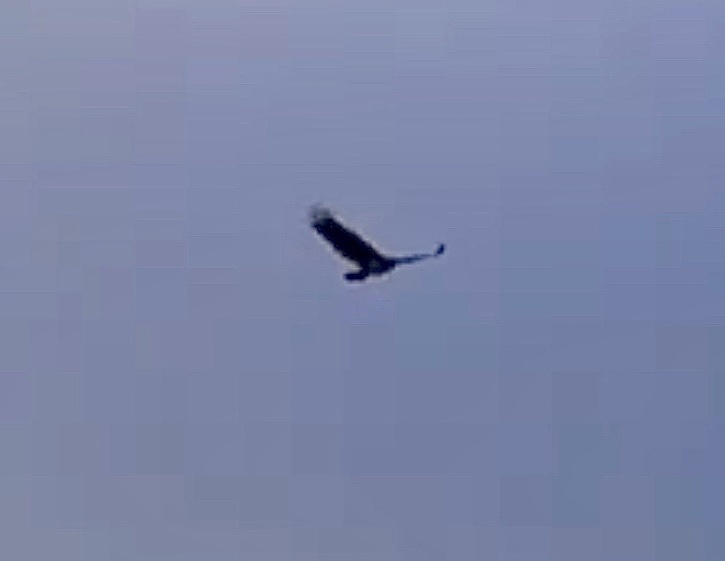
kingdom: Animalia
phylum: Chordata
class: Aves
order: Accipitriformes
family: Accipitridae
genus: Haliaeetus
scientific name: Haliaeetus albicilla
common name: White-tailed eagle
